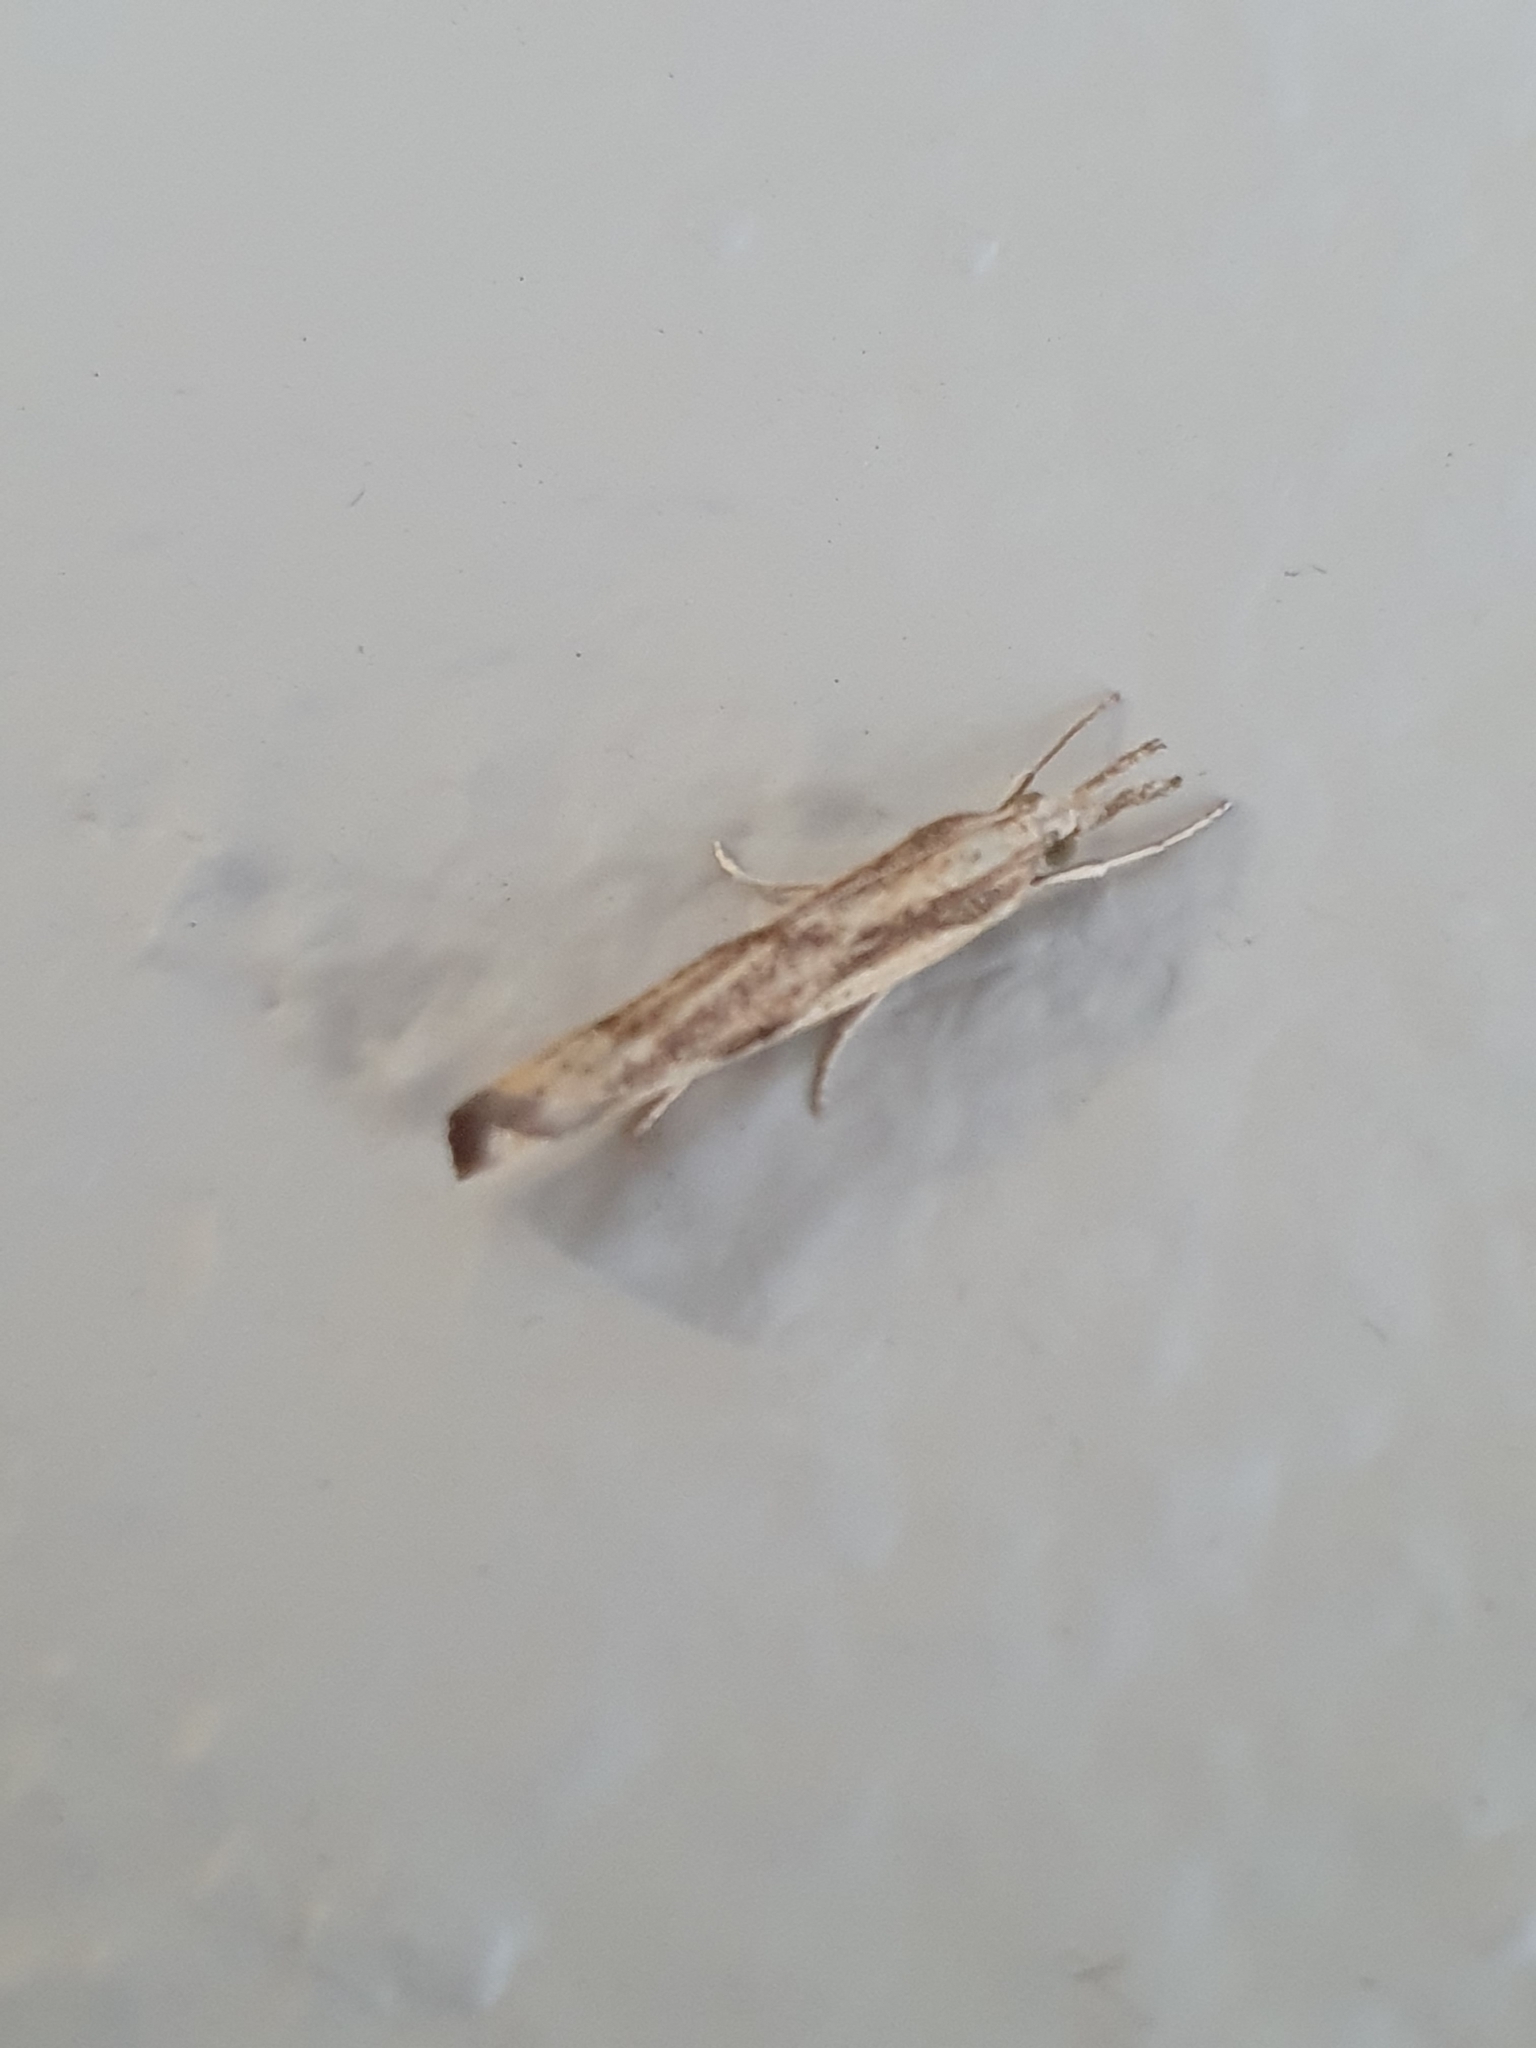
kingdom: Animalia
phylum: Arthropoda
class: Insecta
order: Lepidoptera
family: Crambidae
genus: Agriphila
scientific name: Agriphila inquinatella
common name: Barred grass-veneer
